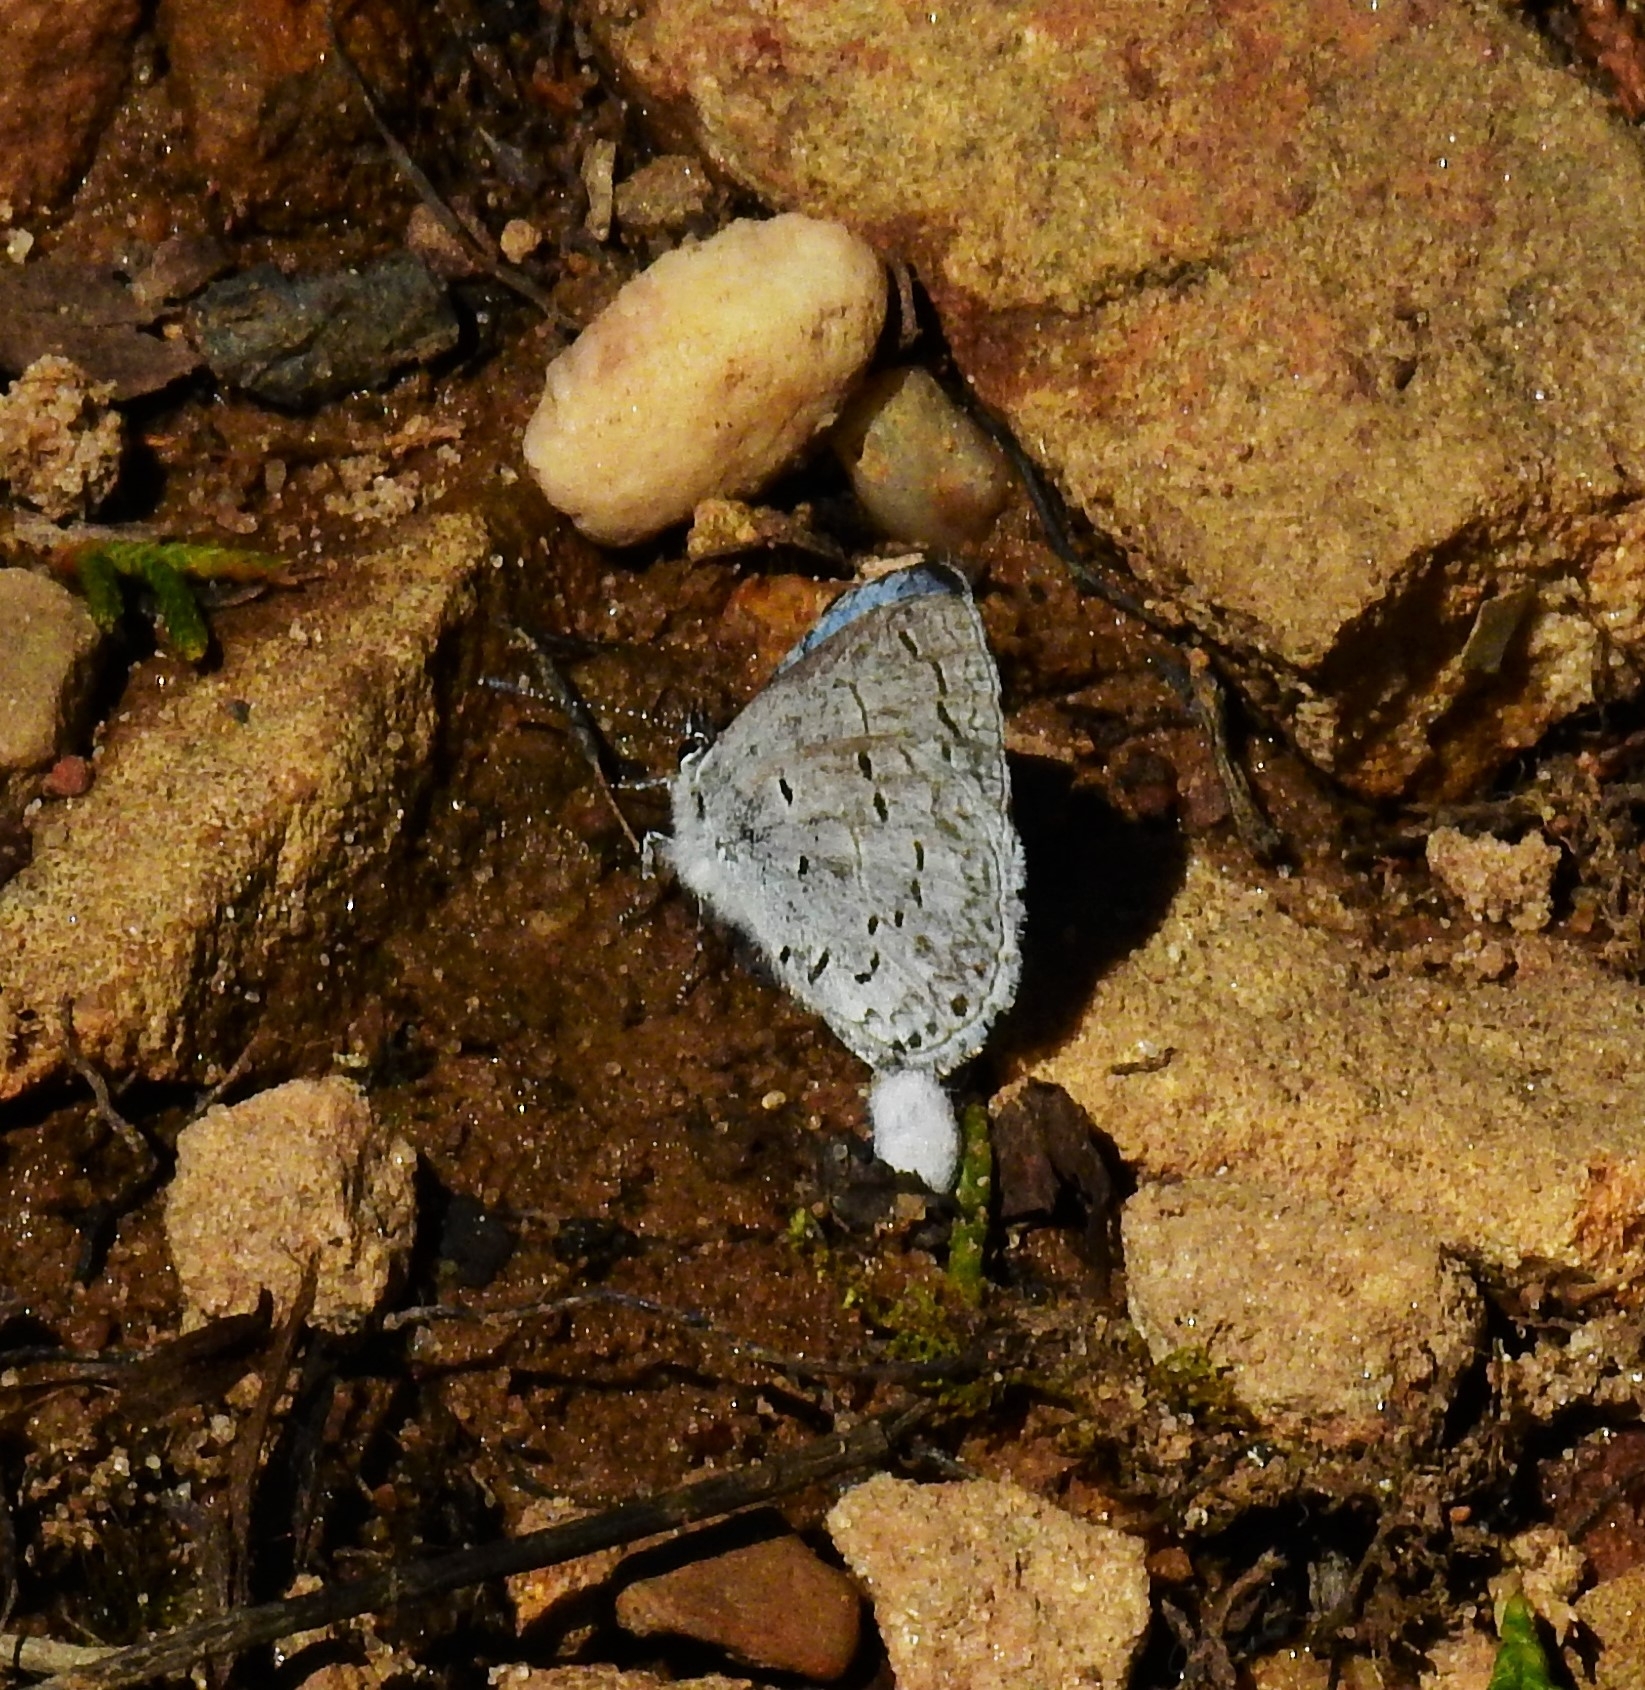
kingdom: Animalia
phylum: Arthropoda
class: Insecta
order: Lepidoptera
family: Lycaenidae
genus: Celastrina
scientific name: Celastrina ladon
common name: Spring azure
